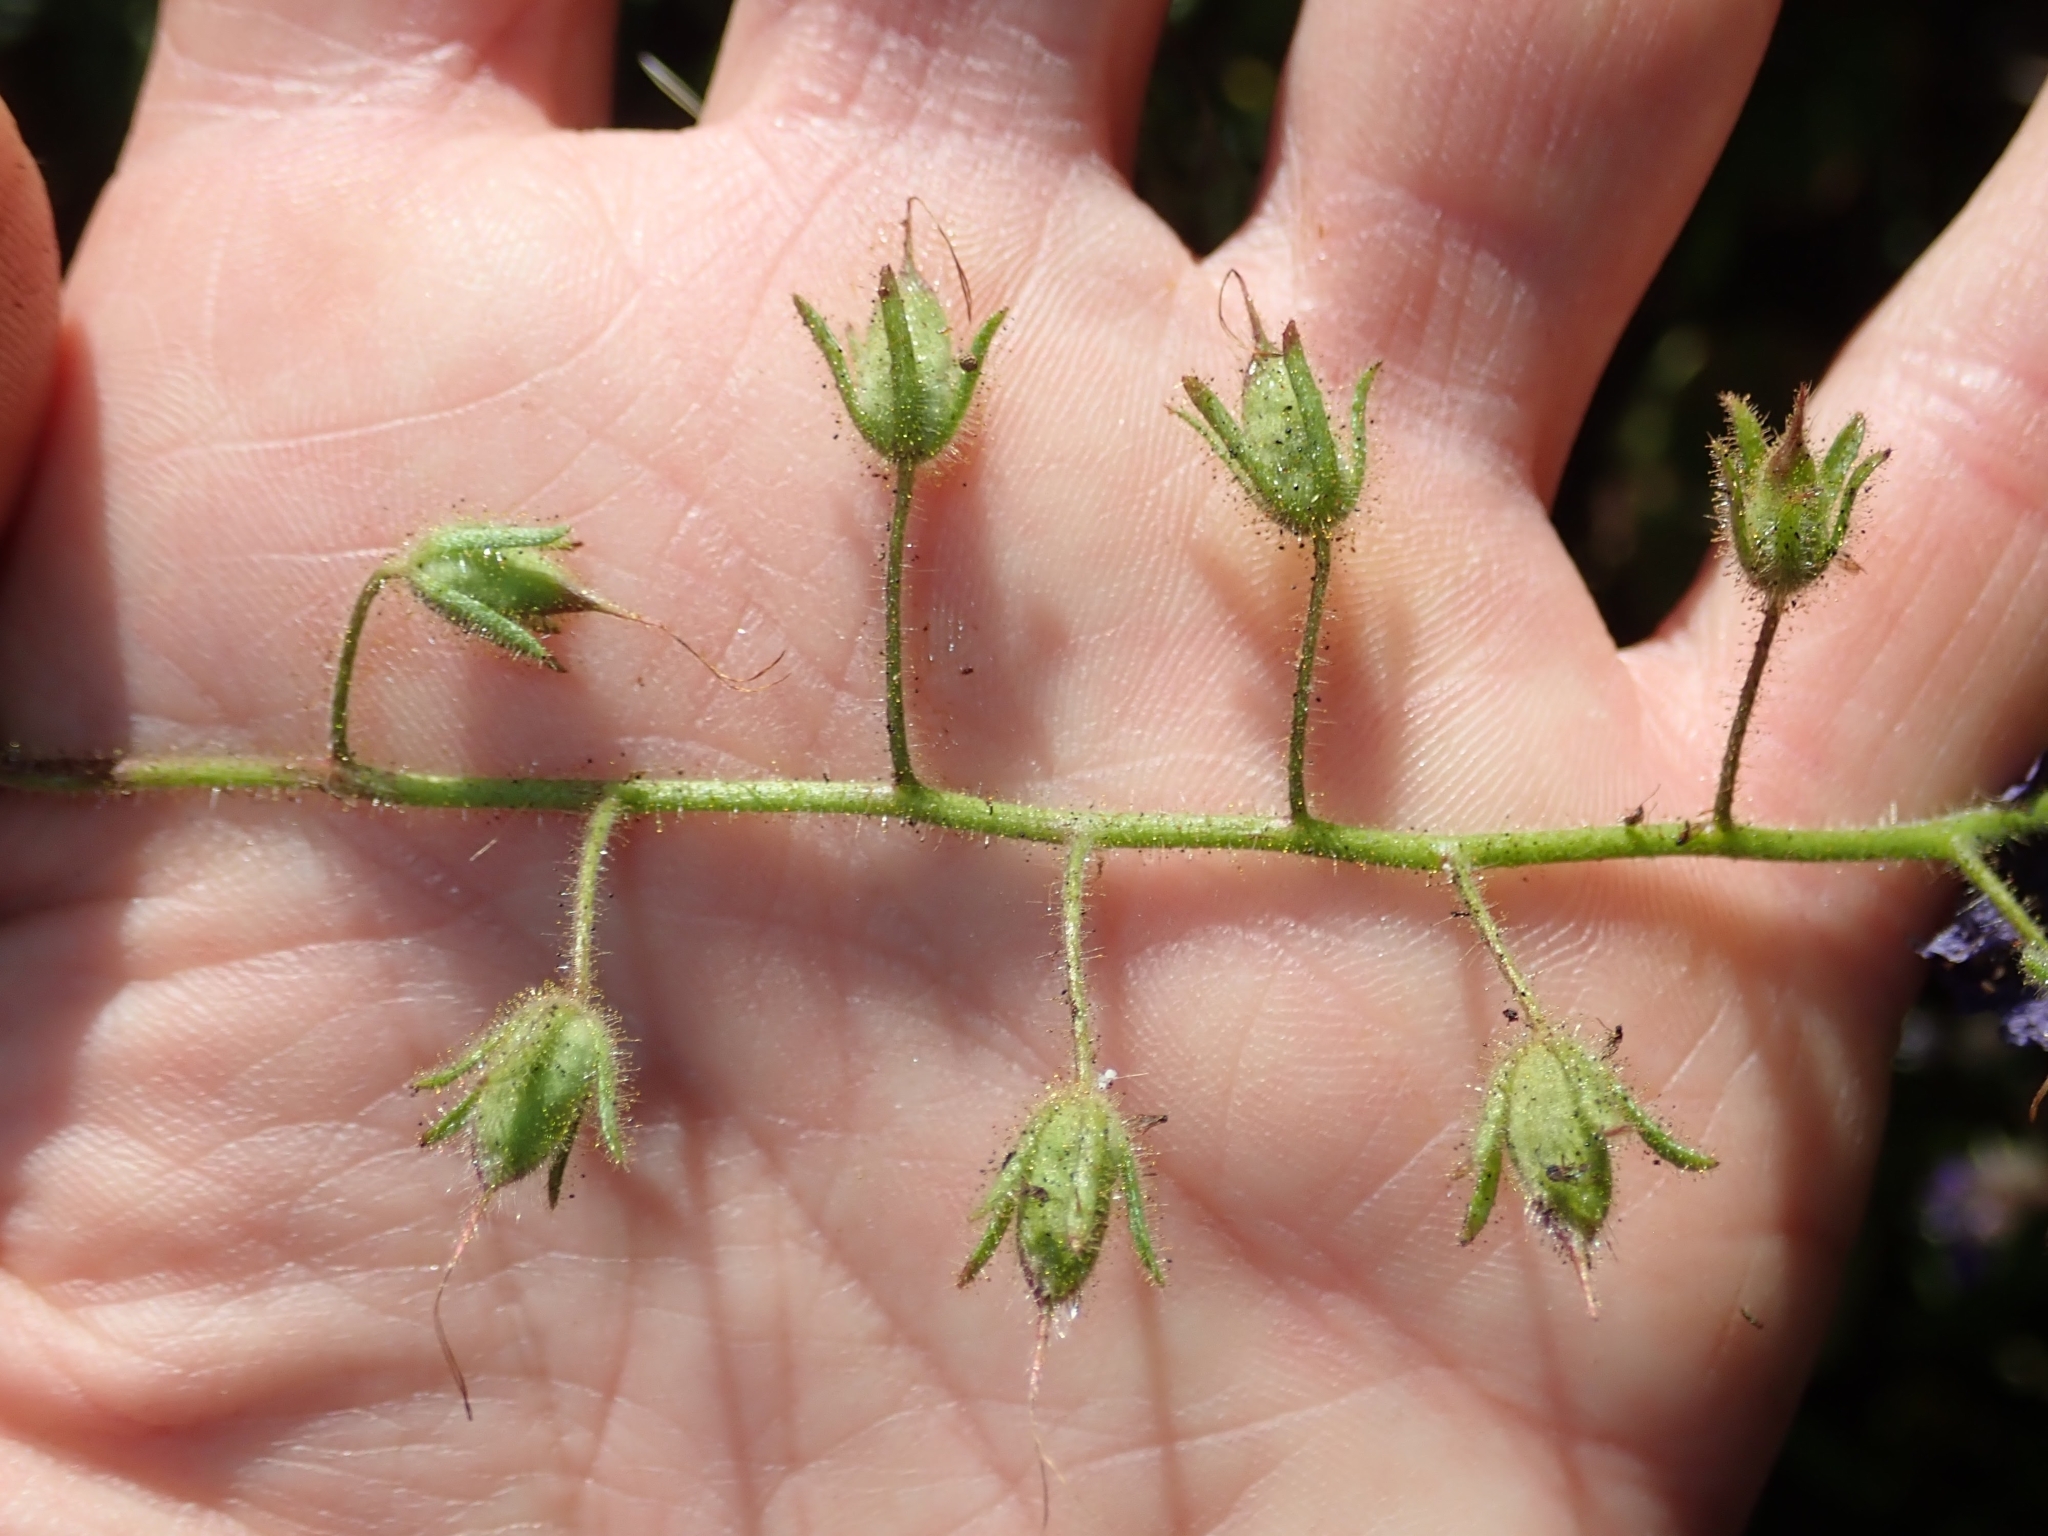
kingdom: Plantae
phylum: Tracheophyta
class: Magnoliopsida
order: Boraginales
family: Hydrophyllaceae
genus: Phacelia
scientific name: Phacelia parryi
